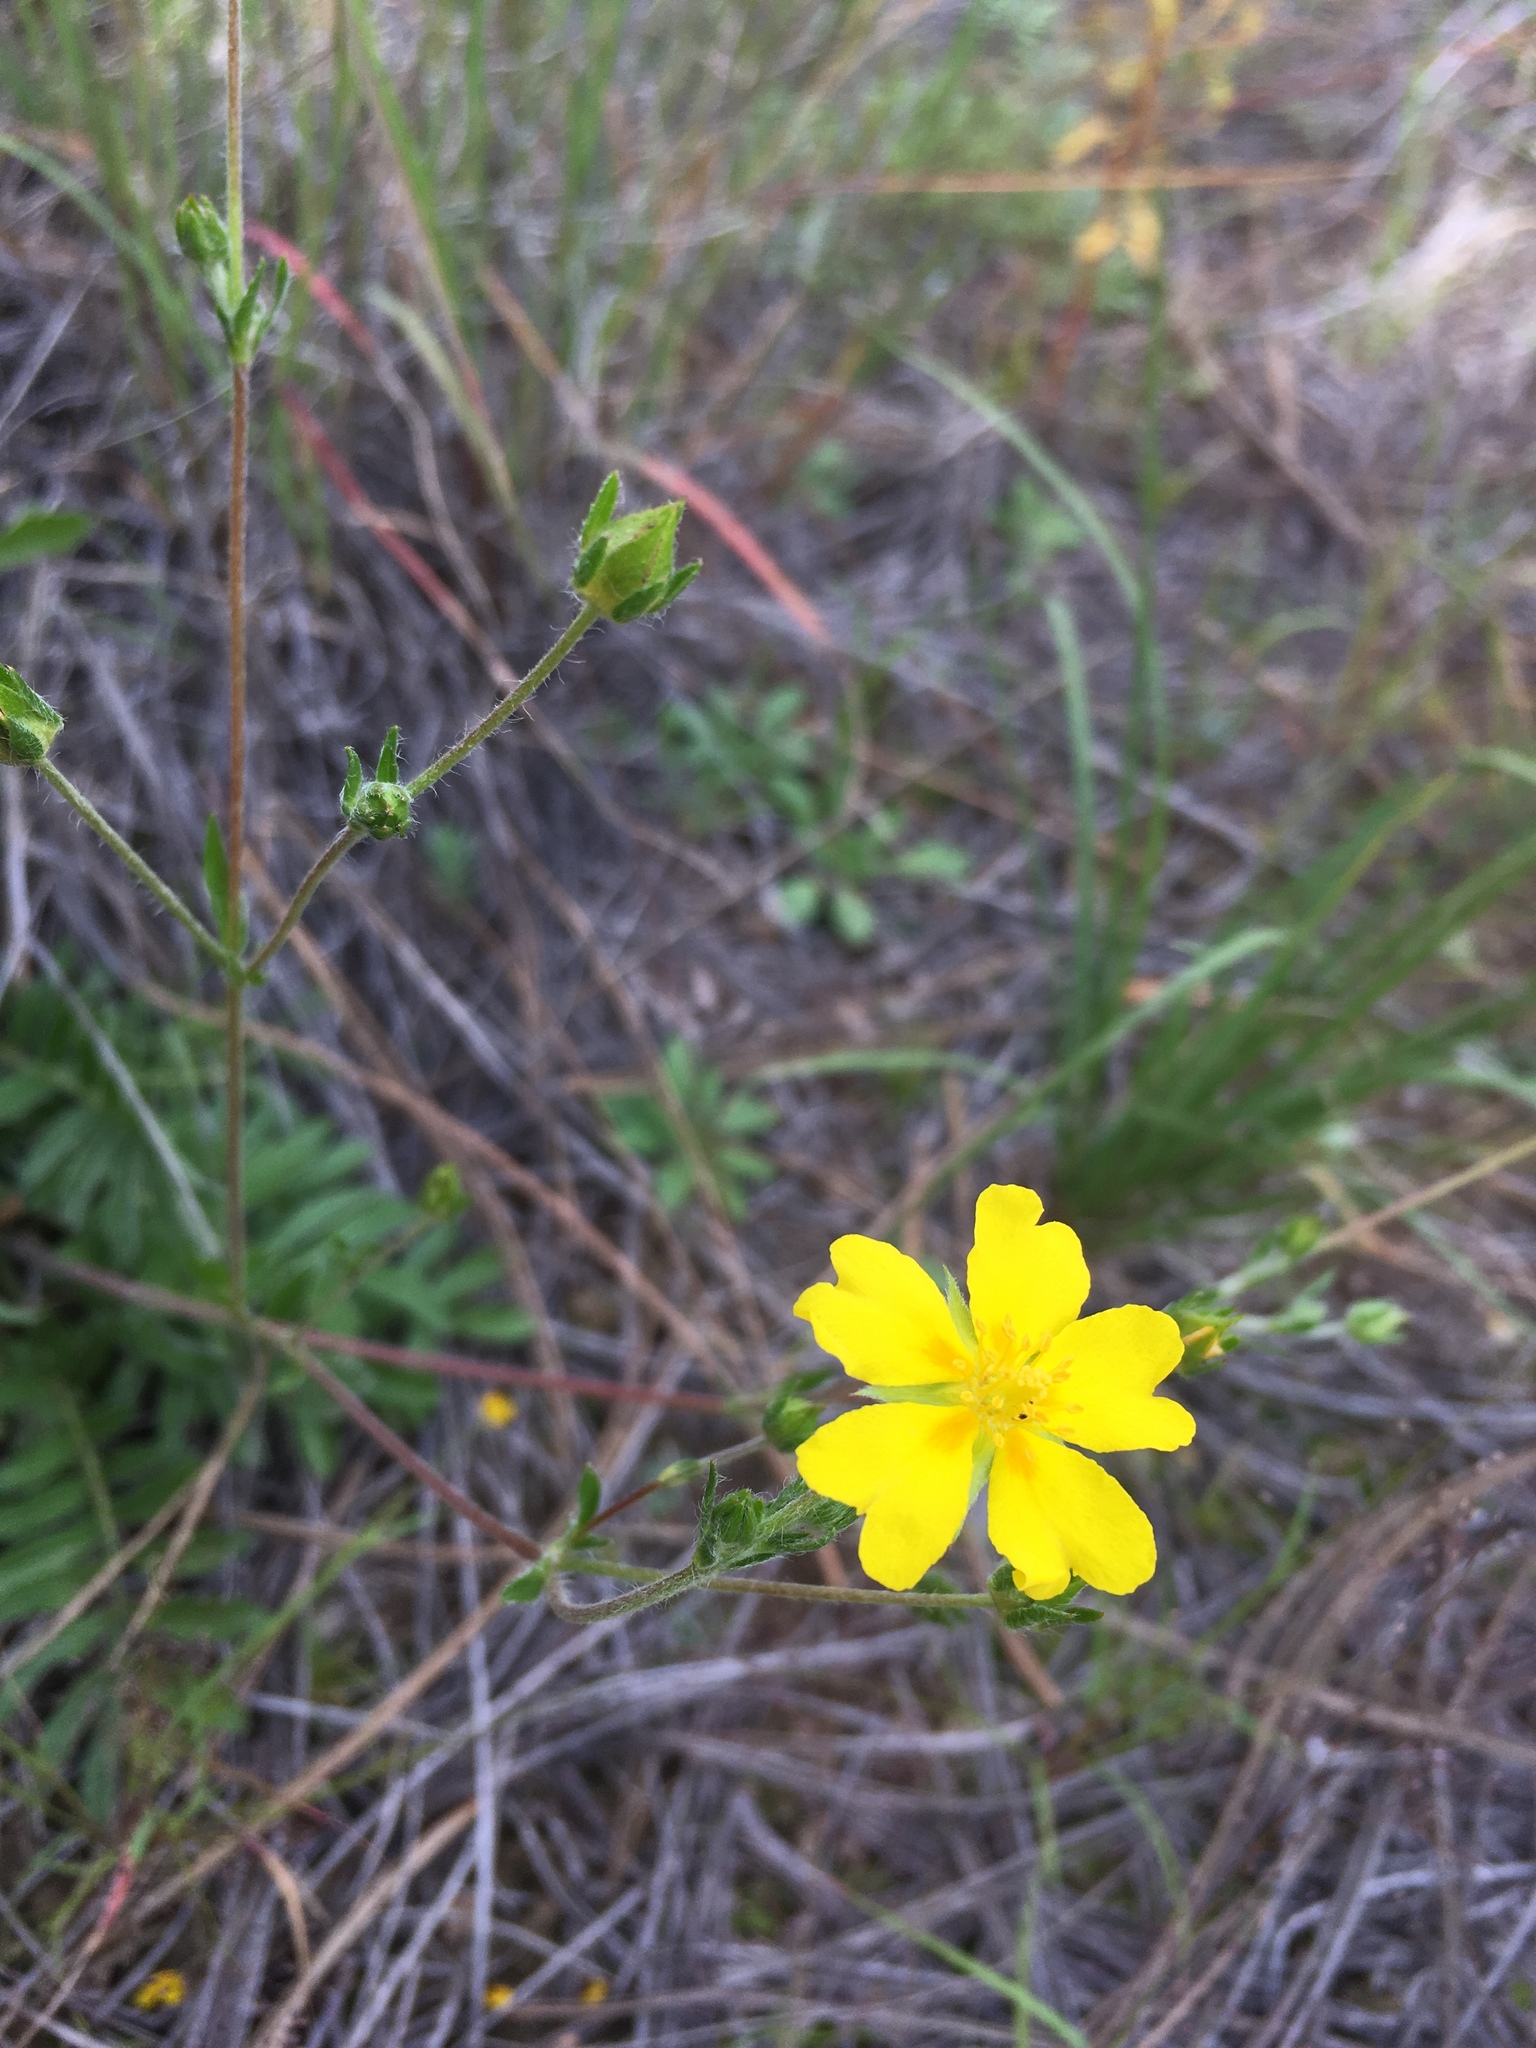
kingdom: Plantae
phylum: Tracheophyta
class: Magnoliopsida
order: Rosales
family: Rosaceae
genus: Potentilla
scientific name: Potentilla crinita
